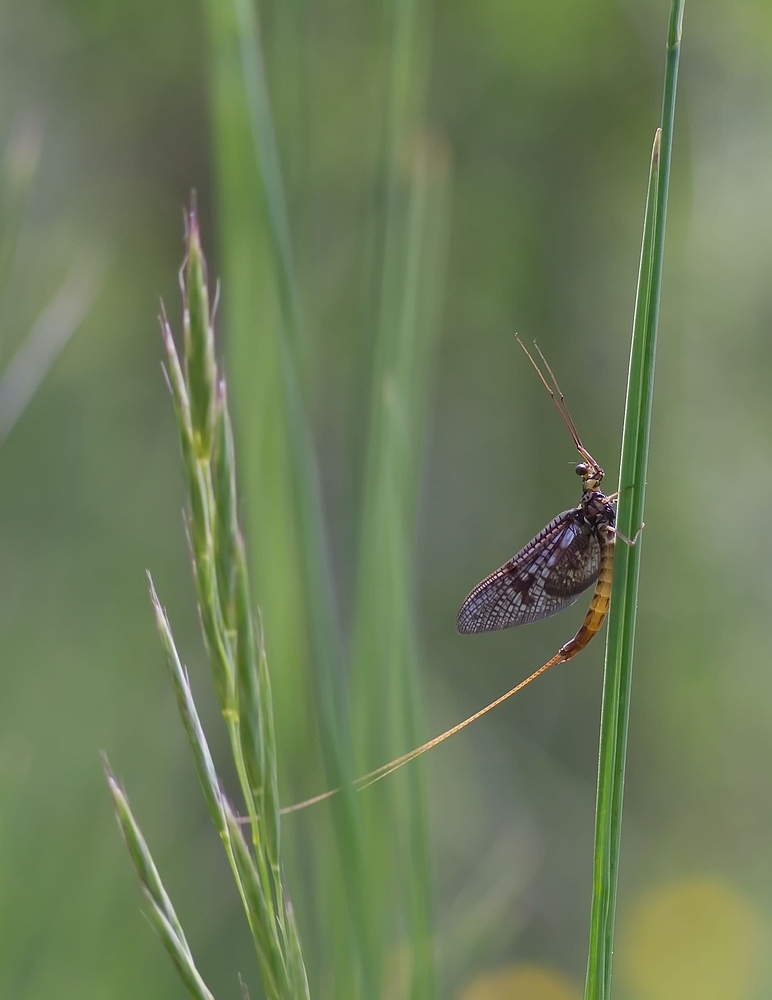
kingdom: Animalia
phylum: Arthropoda
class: Insecta
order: Ephemeroptera
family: Ephemeridae
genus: Ephemera
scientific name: Ephemera vulgata
